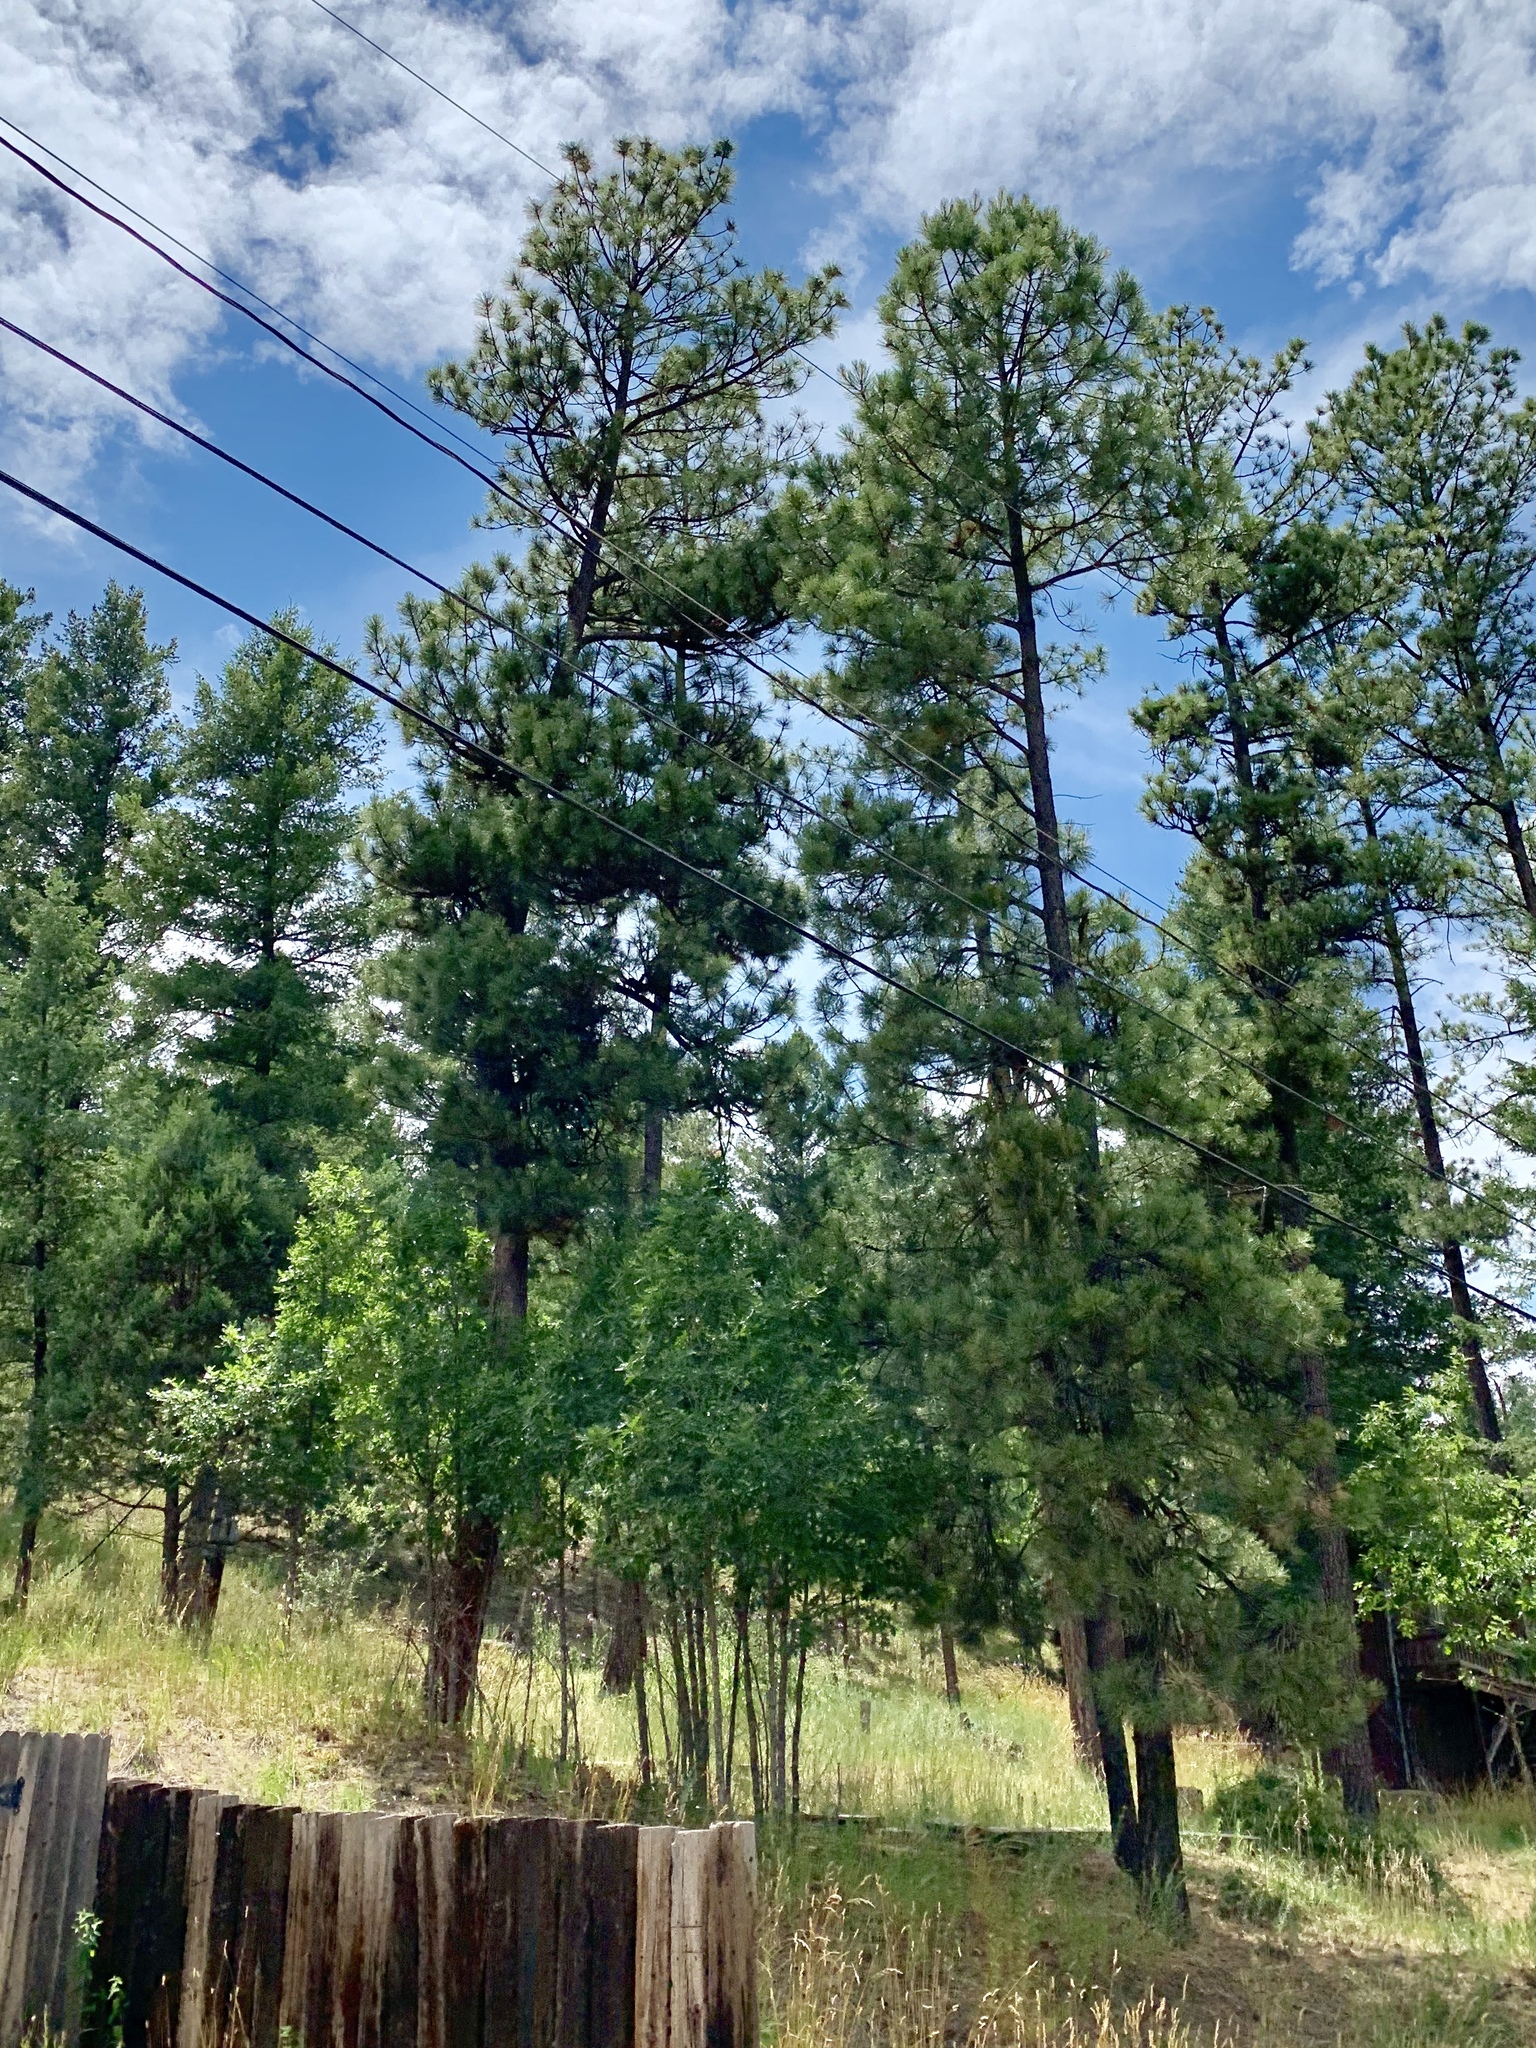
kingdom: Plantae
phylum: Tracheophyta
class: Pinopsida
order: Pinales
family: Pinaceae
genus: Pinus
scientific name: Pinus ponderosa
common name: Western yellow-pine
